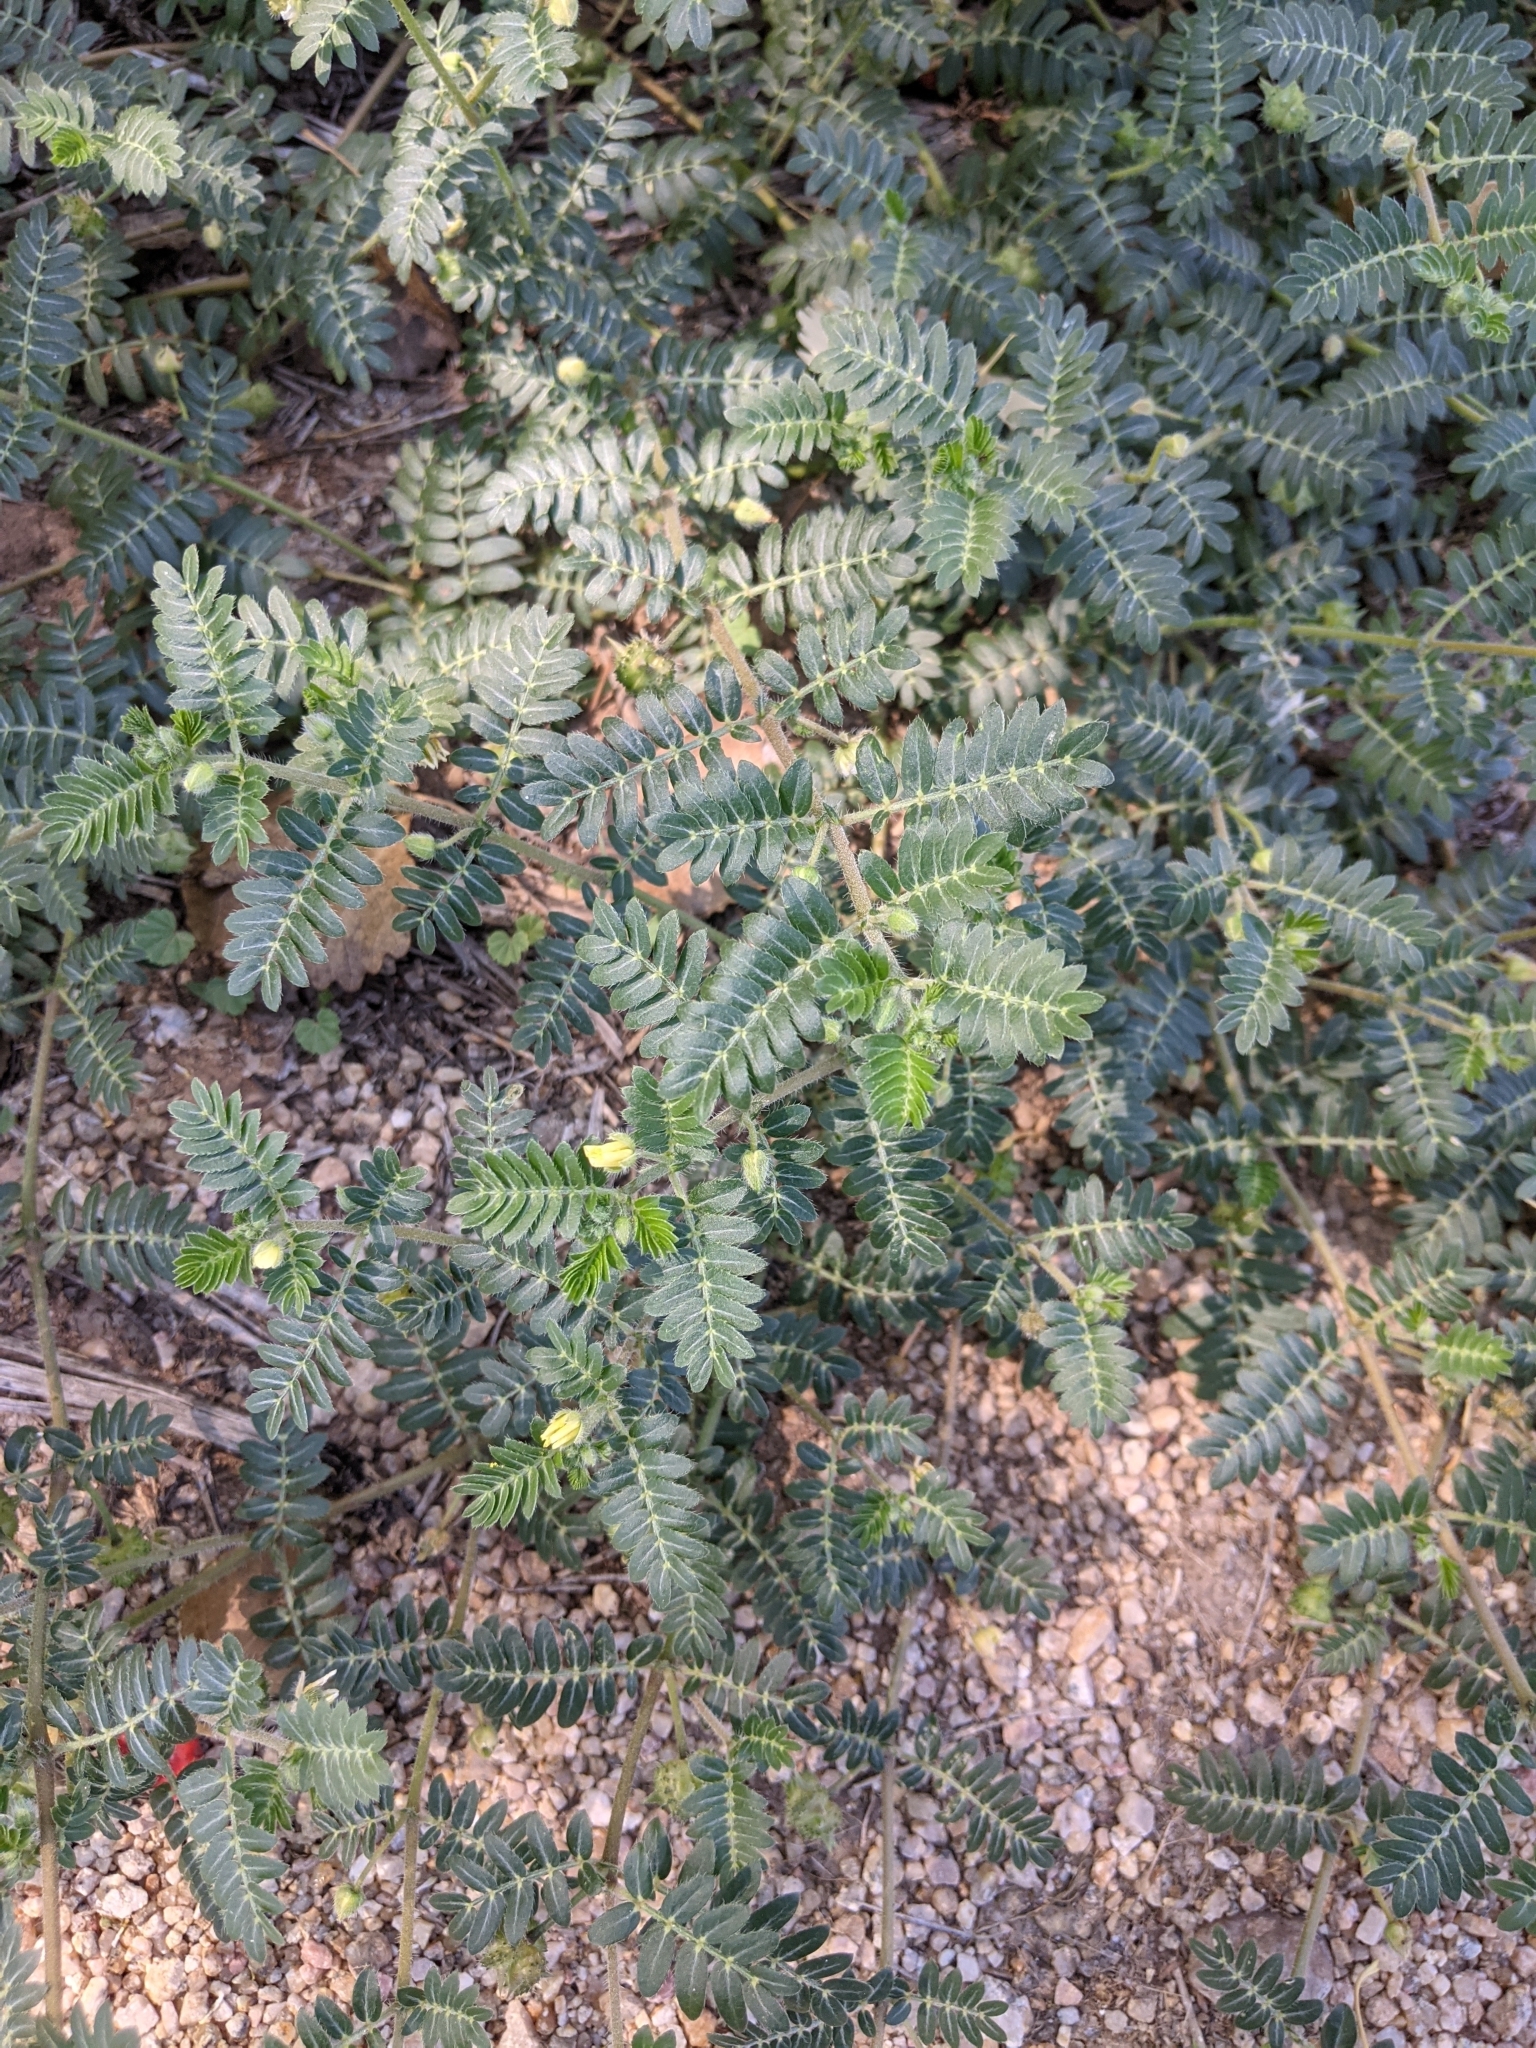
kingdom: Plantae
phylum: Tracheophyta
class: Magnoliopsida
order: Zygophyllales
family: Zygophyllaceae
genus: Tribulus
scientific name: Tribulus terrestris
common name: Puncturevine
